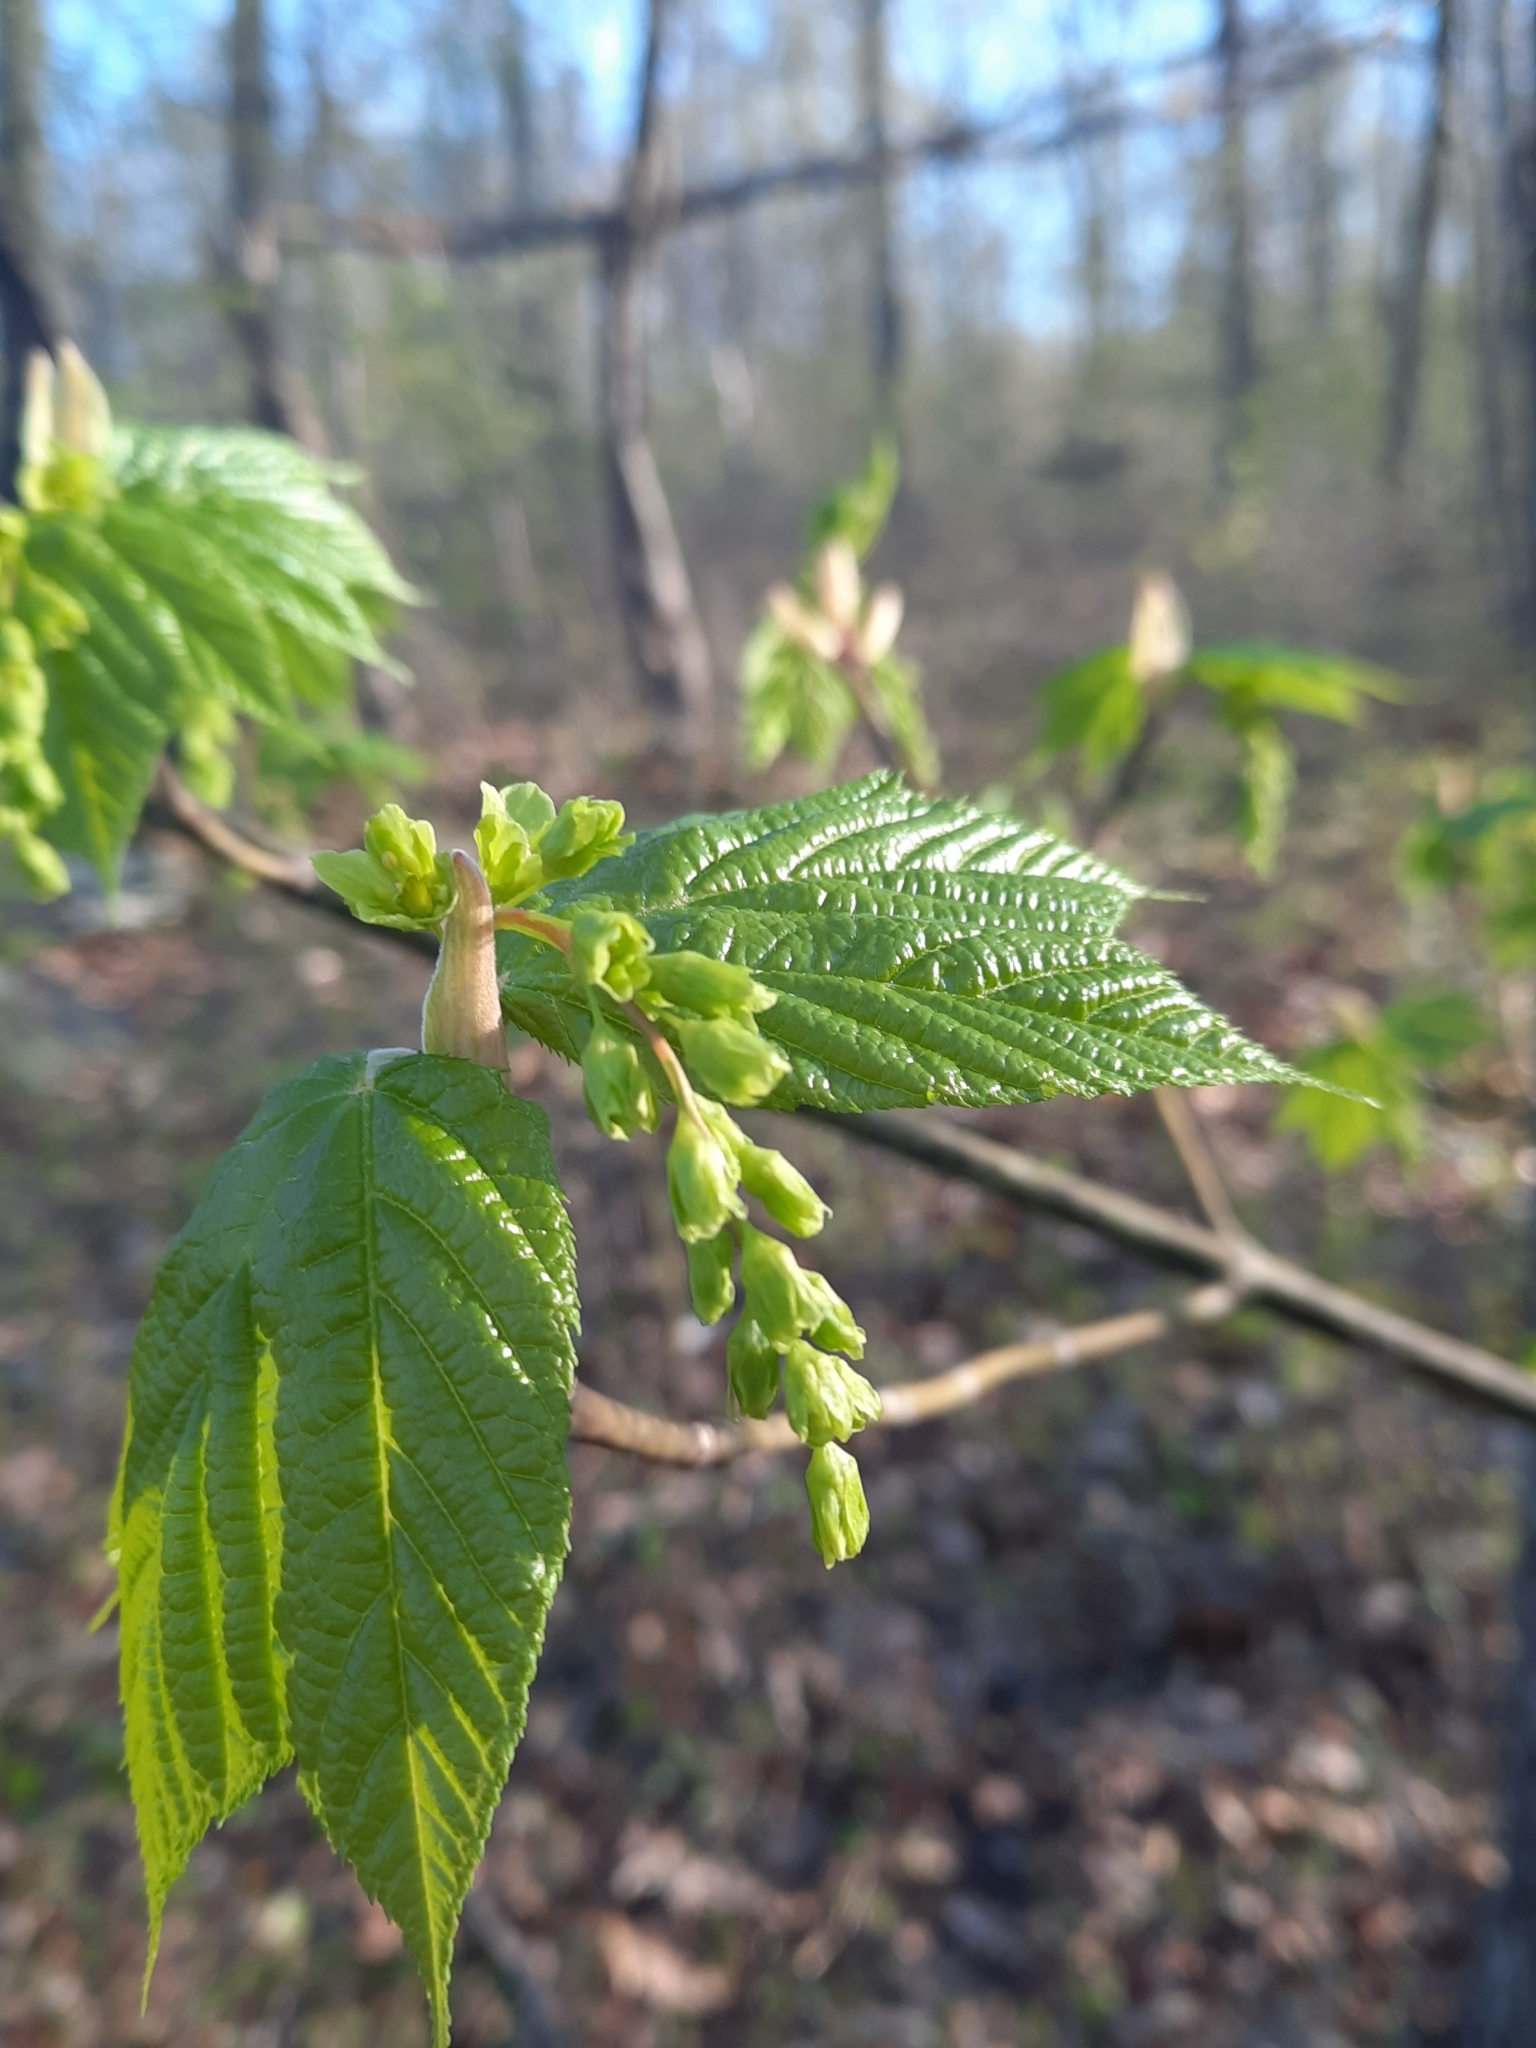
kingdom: Plantae
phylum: Tracheophyta
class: Magnoliopsida
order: Sapindales
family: Sapindaceae
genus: Acer
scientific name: Acer pensylvanicum
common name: Moosewood
